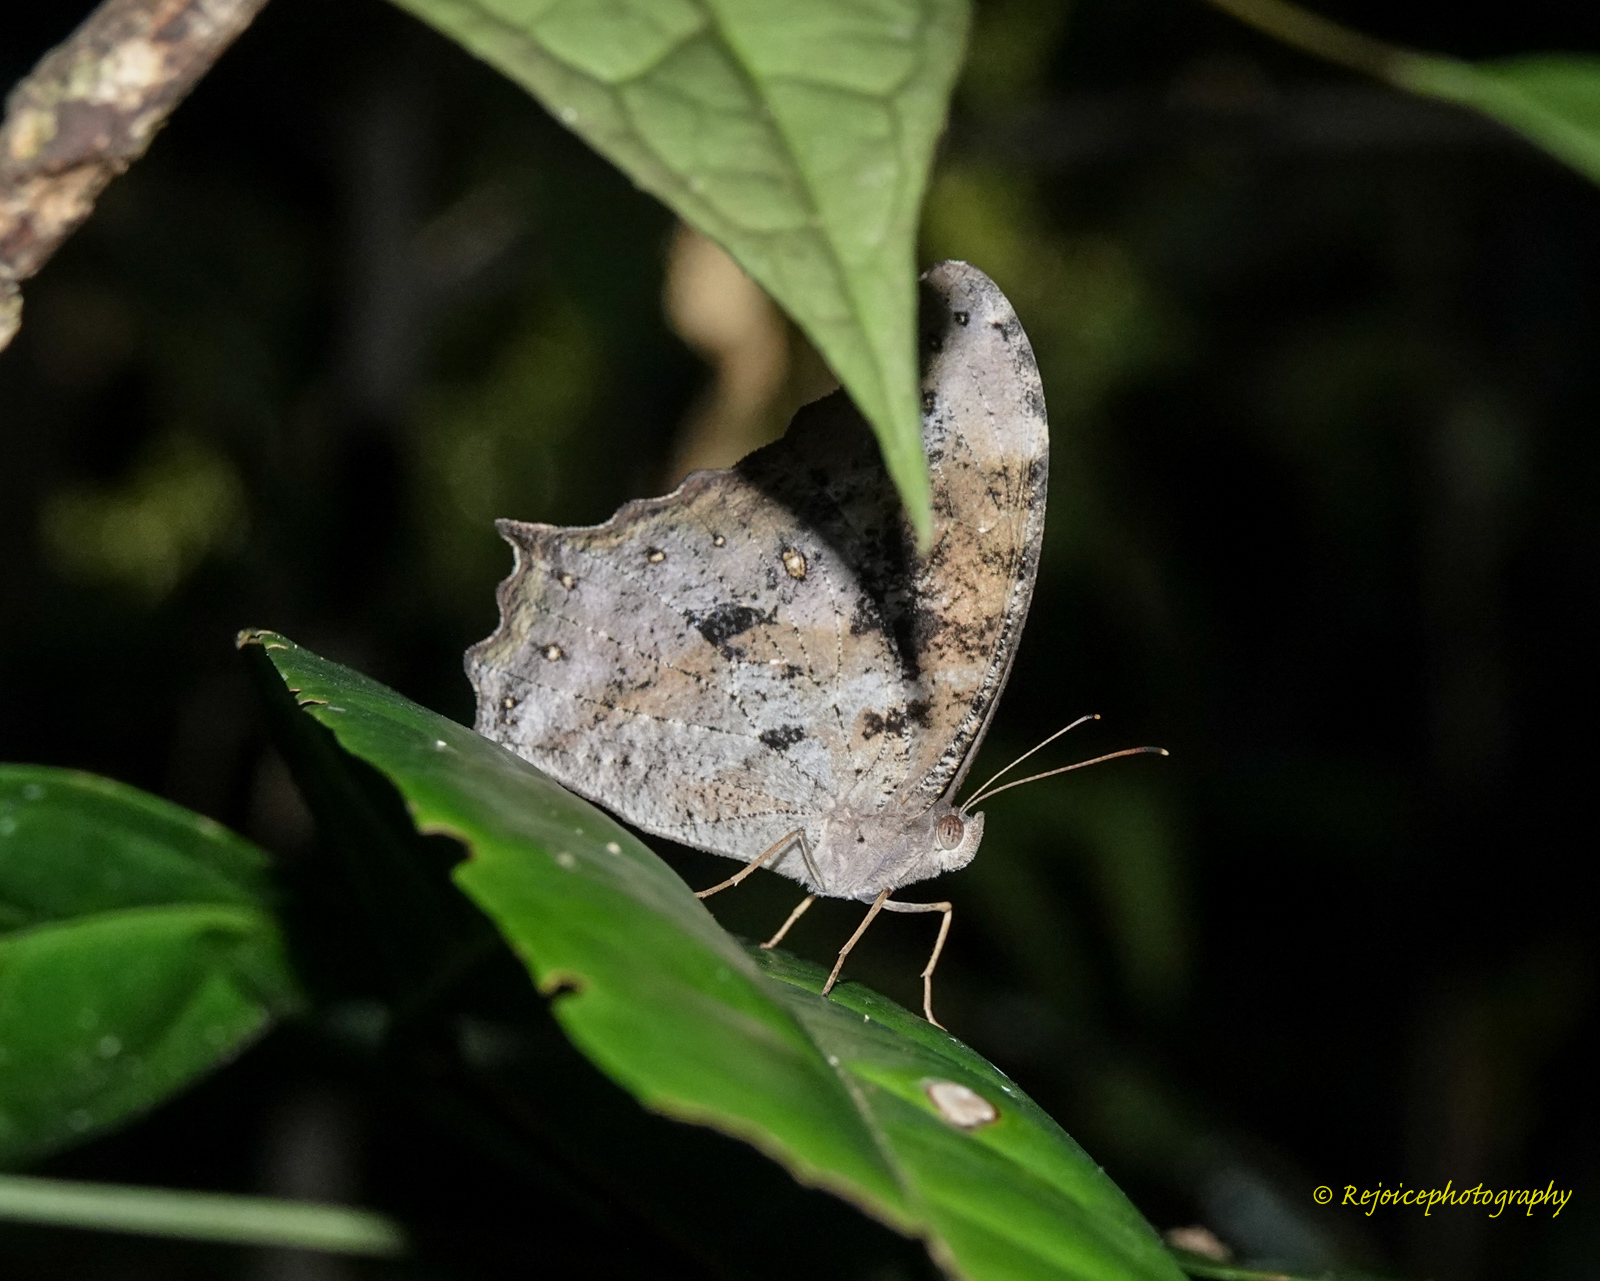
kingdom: Animalia
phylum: Arthropoda
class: Insecta
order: Lepidoptera
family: Nymphalidae
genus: Melanitis
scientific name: Melanitis leda
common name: Twilight brown
